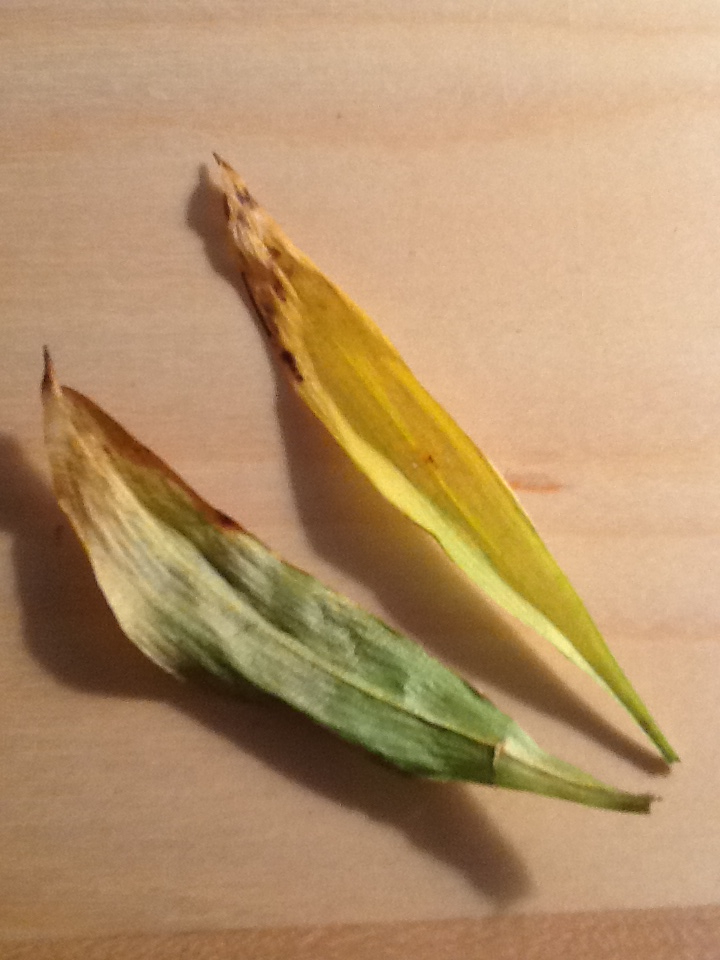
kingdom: Plantae
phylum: Tracheophyta
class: Liliopsida
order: Asparagales
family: Asparagaceae
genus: Maianthemum
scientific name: Maianthemum trifolium
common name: Swamp false solomon's seal
